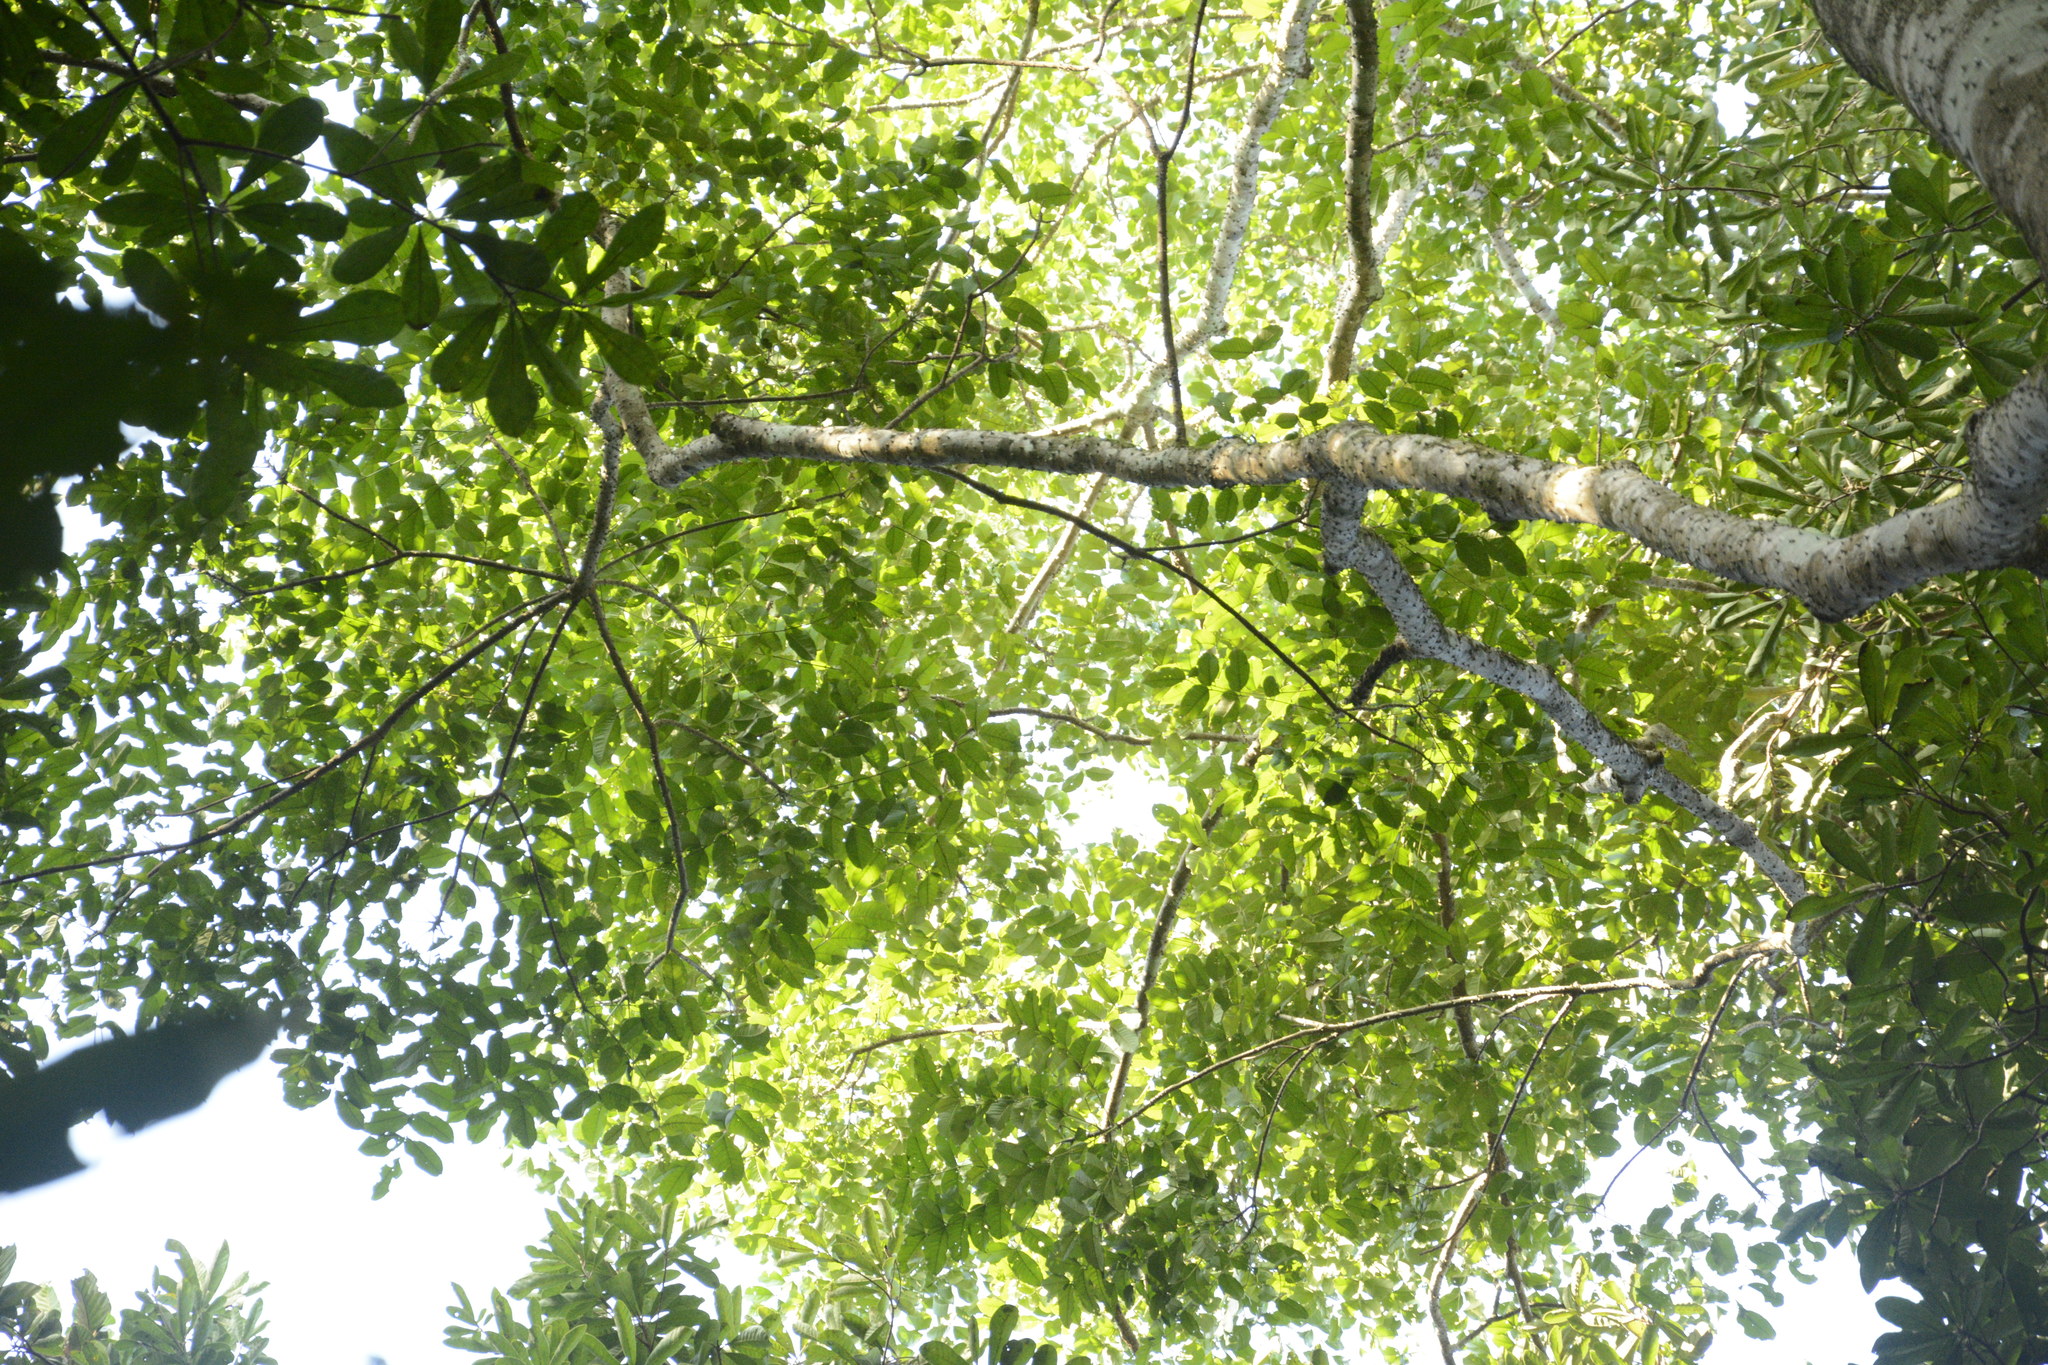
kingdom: Plantae
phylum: Tracheophyta
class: Magnoliopsida
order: Sapindales
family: Rutaceae
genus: Zanthoxylum
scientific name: Zanthoxylum rhetsa
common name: Indian ivy-rue
